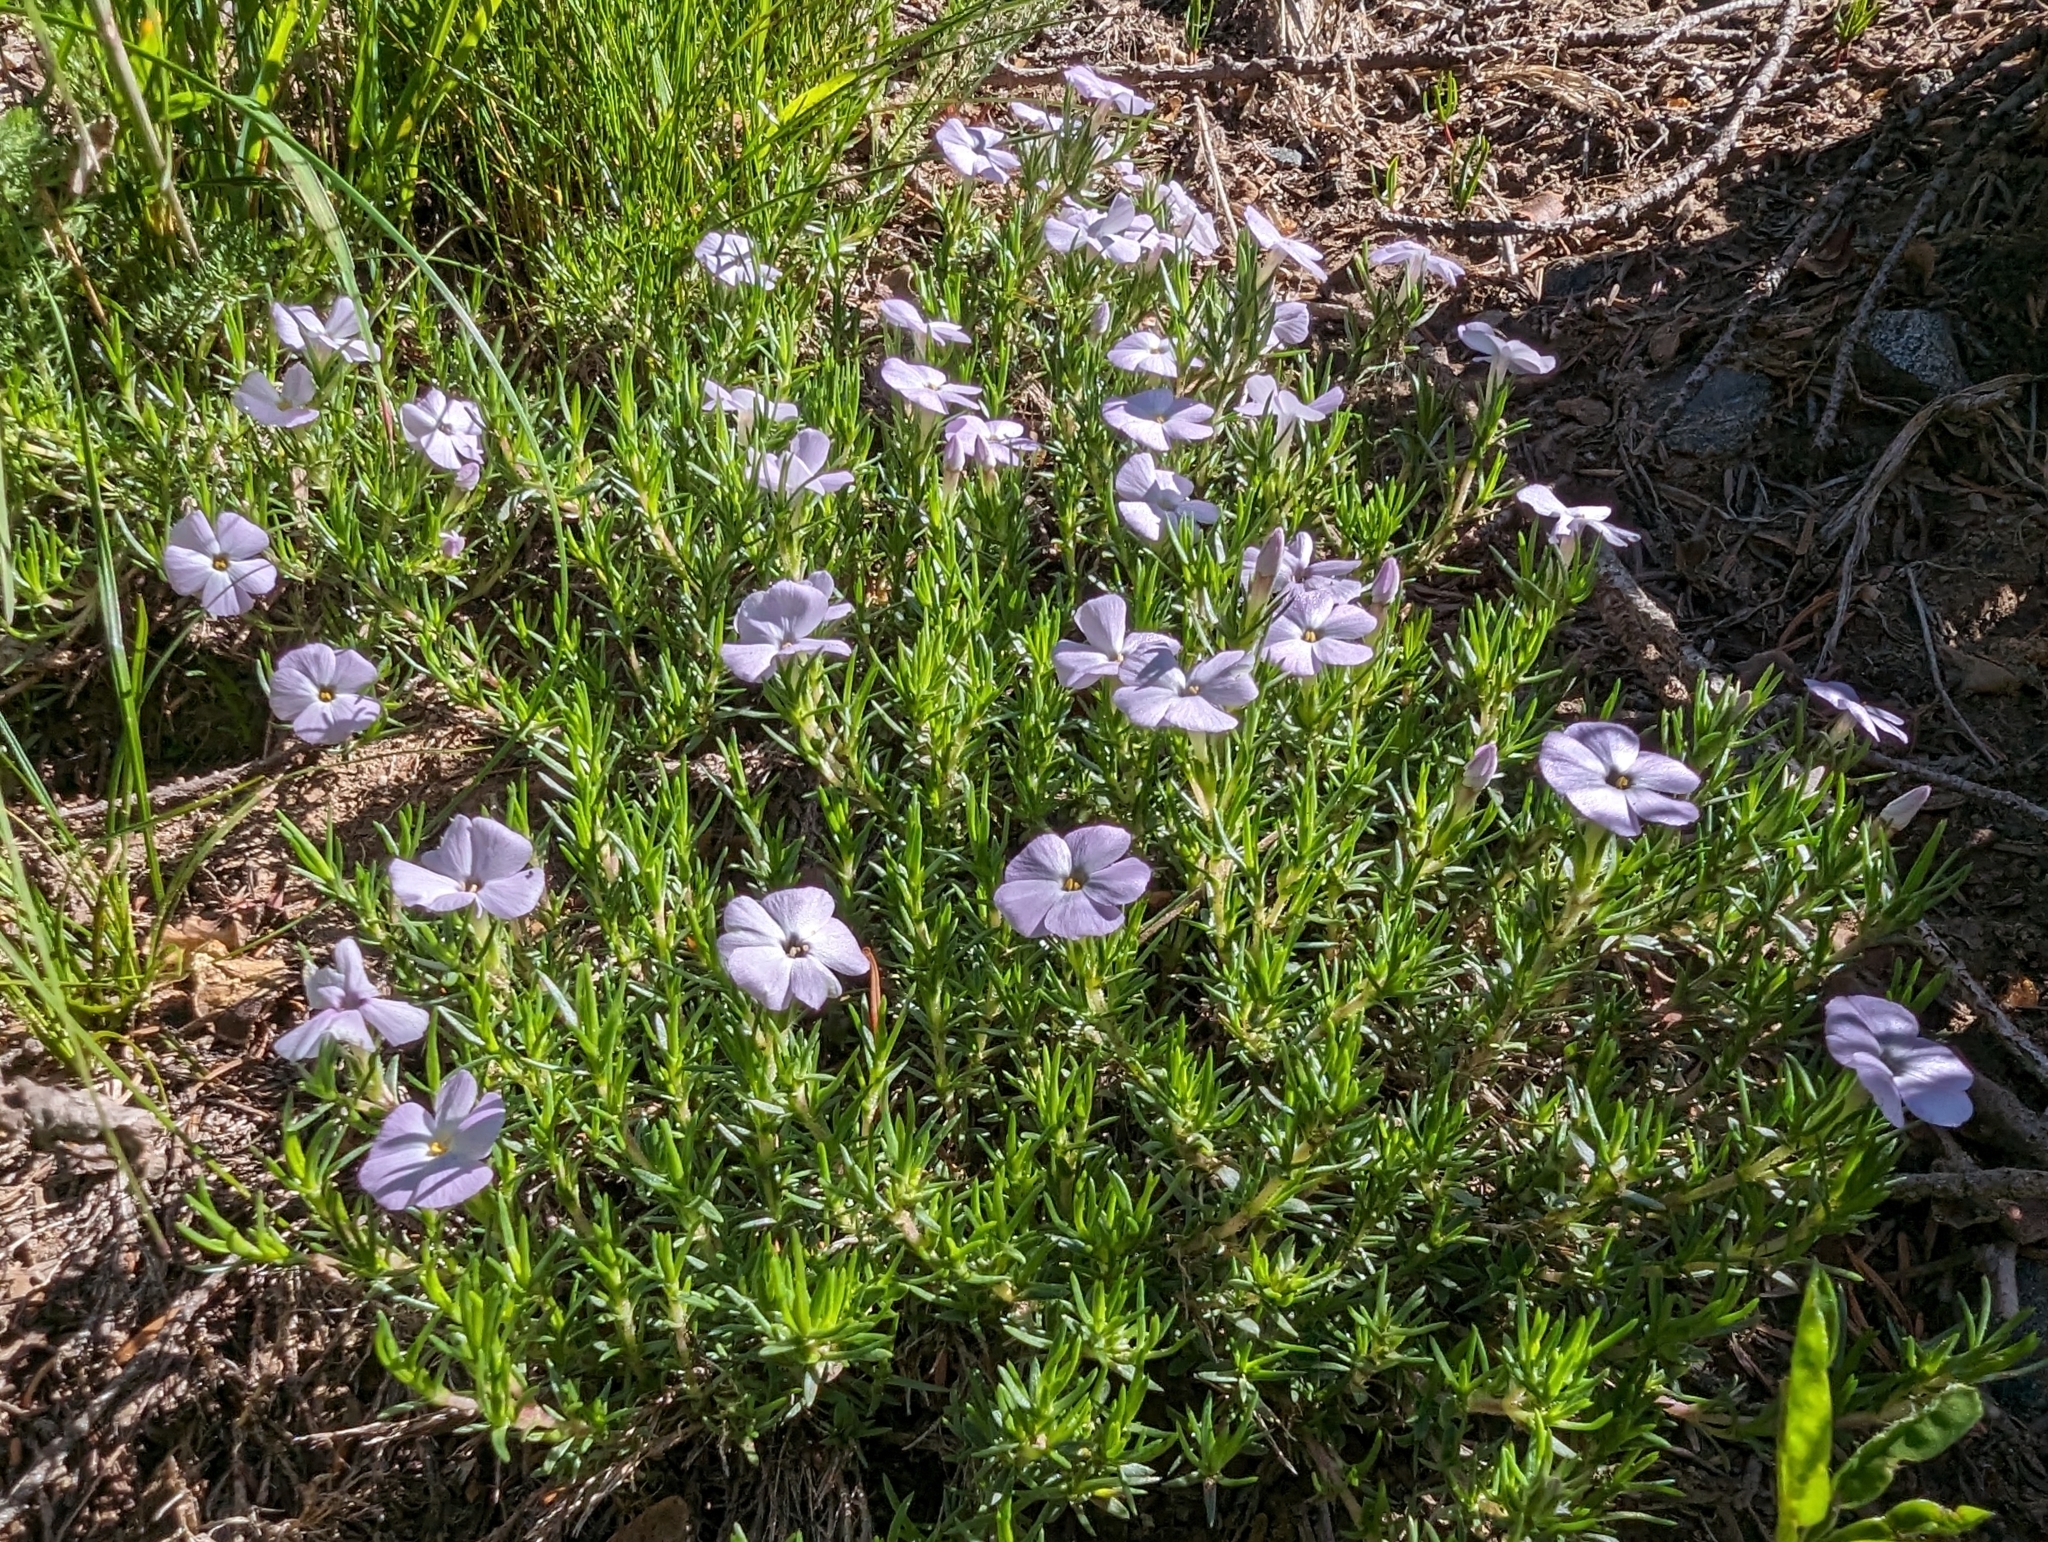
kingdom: Plantae
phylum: Tracheophyta
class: Magnoliopsida
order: Ericales
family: Polemoniaceae
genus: Phlox
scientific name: Phlox diffusa
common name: Mat phlox
